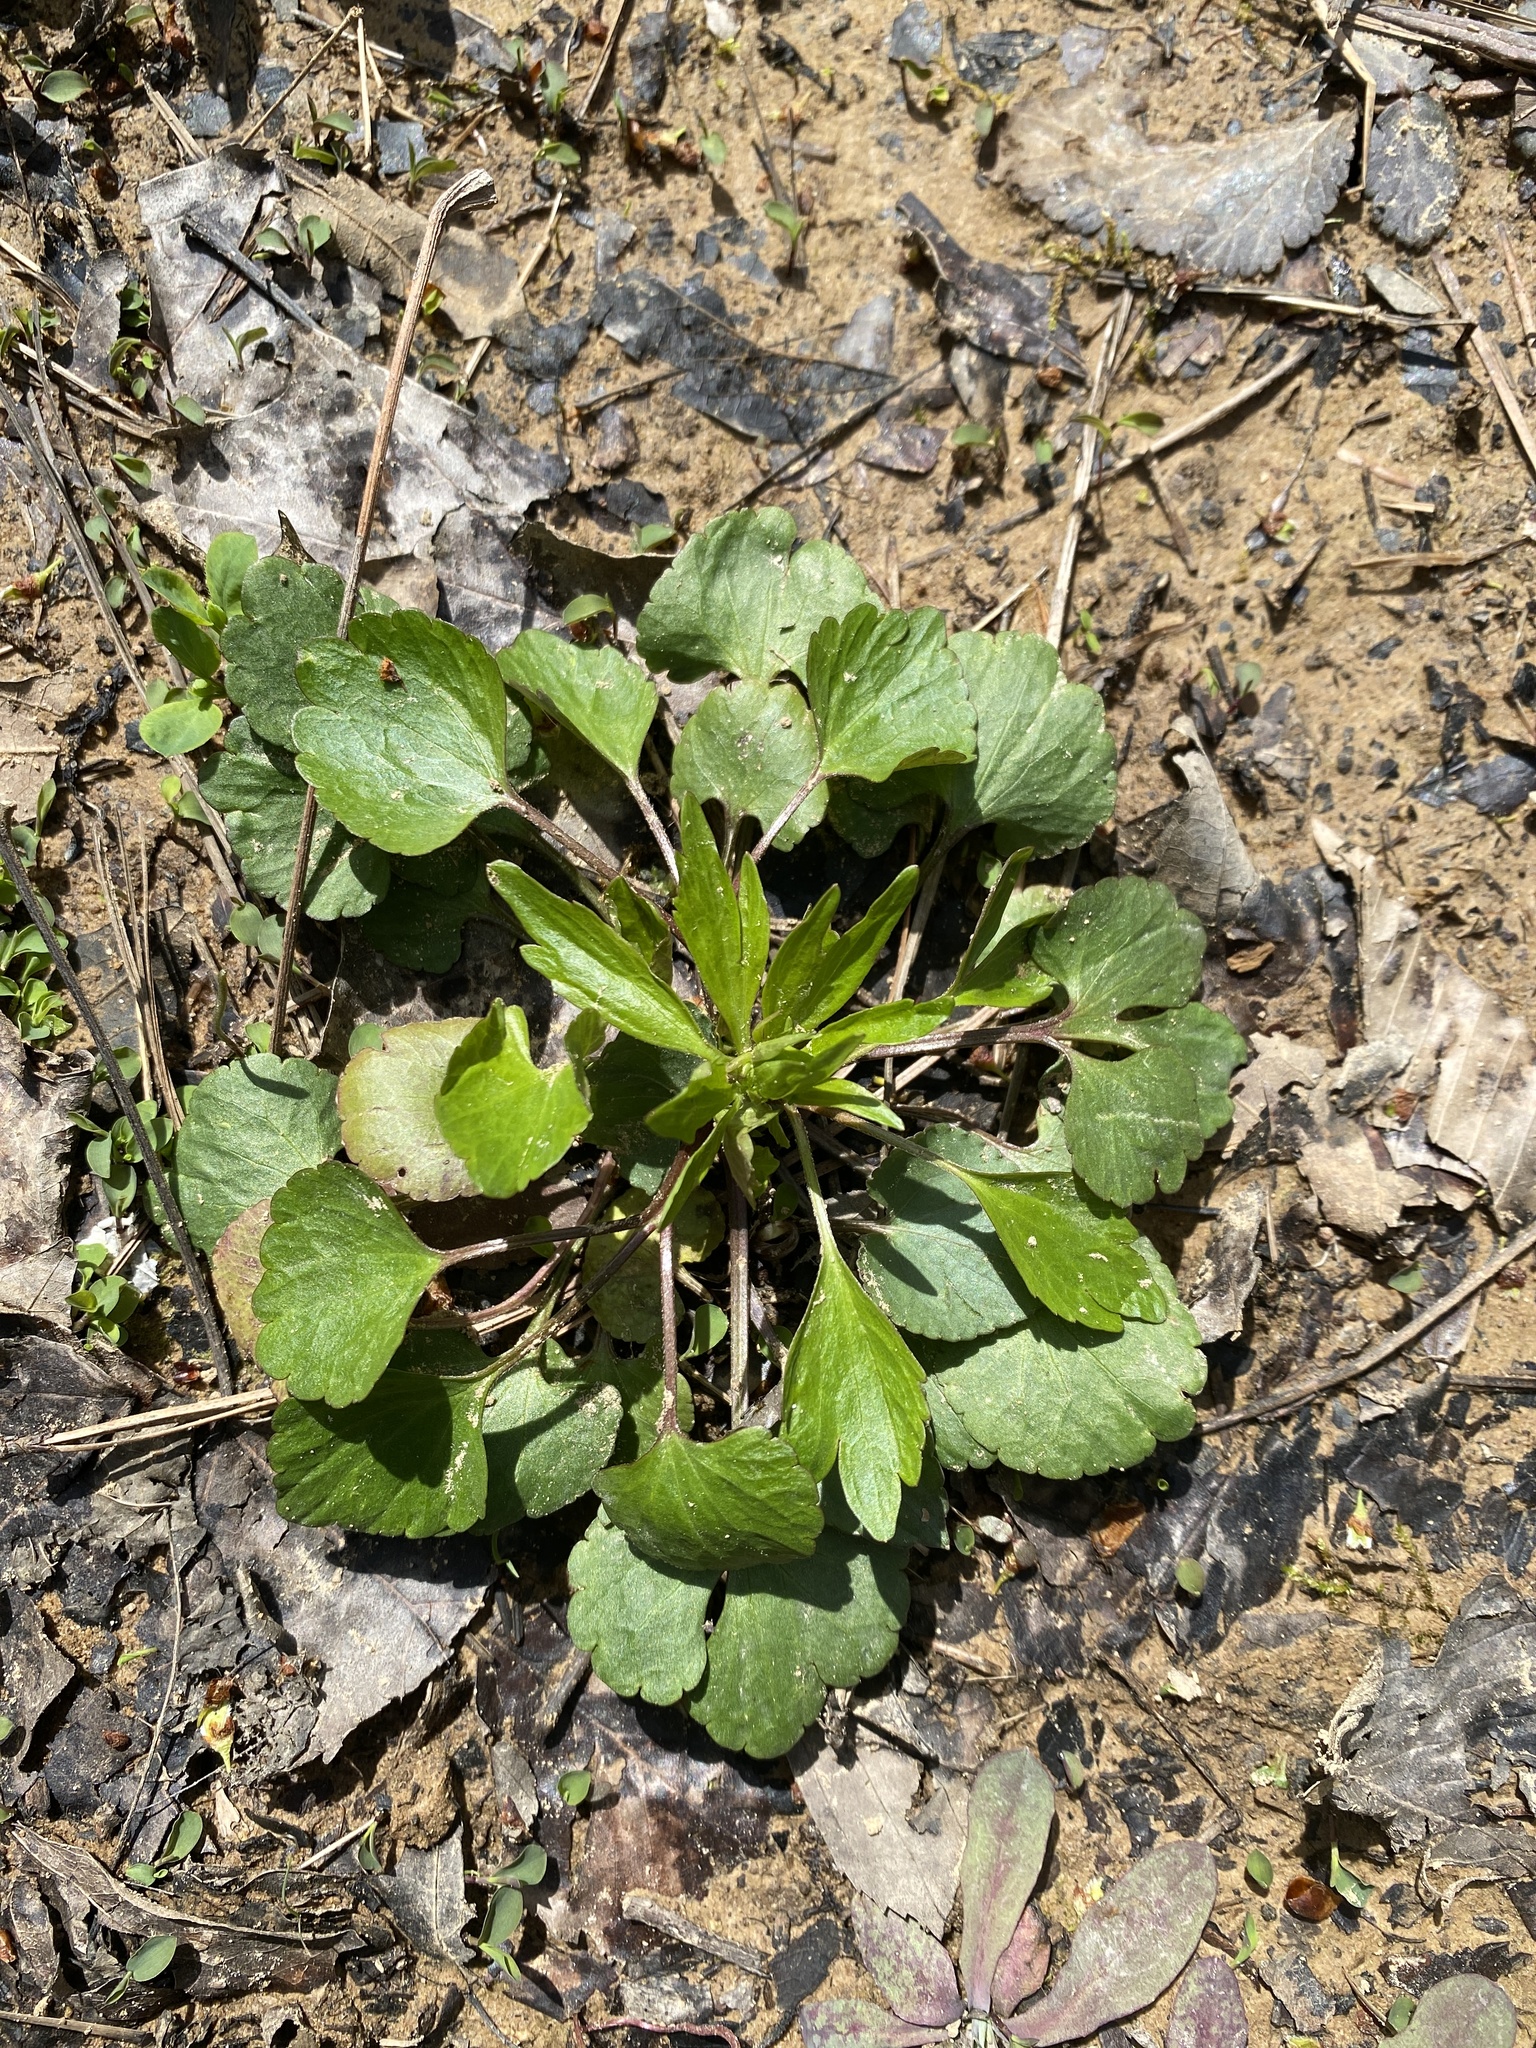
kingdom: Plantae
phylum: Tracheophyta
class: Magnoliopsida
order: Ranunculales
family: Ranunculaceae
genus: Ranunculus
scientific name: Ranunculus abortivus
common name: Early wood buttercup
